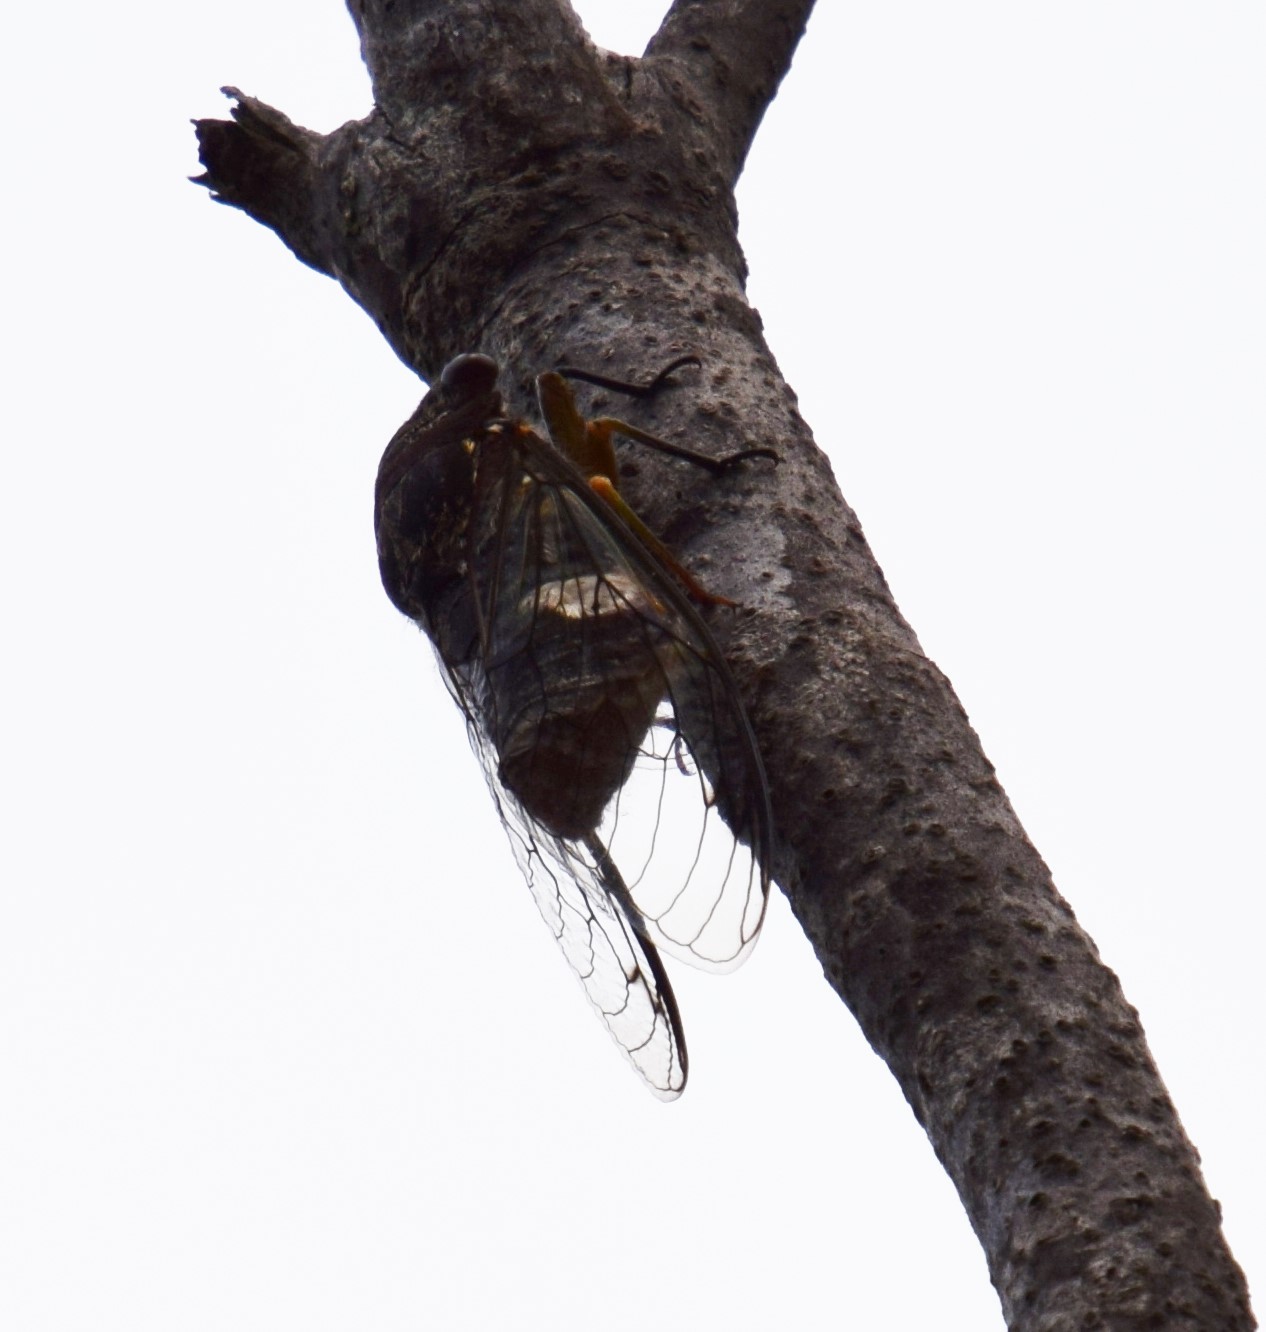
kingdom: Animalia
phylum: Arthropoda
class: Insecta
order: Hemiptera
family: Cicadidae
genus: Psaltoda
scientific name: Psaltoda plaga
